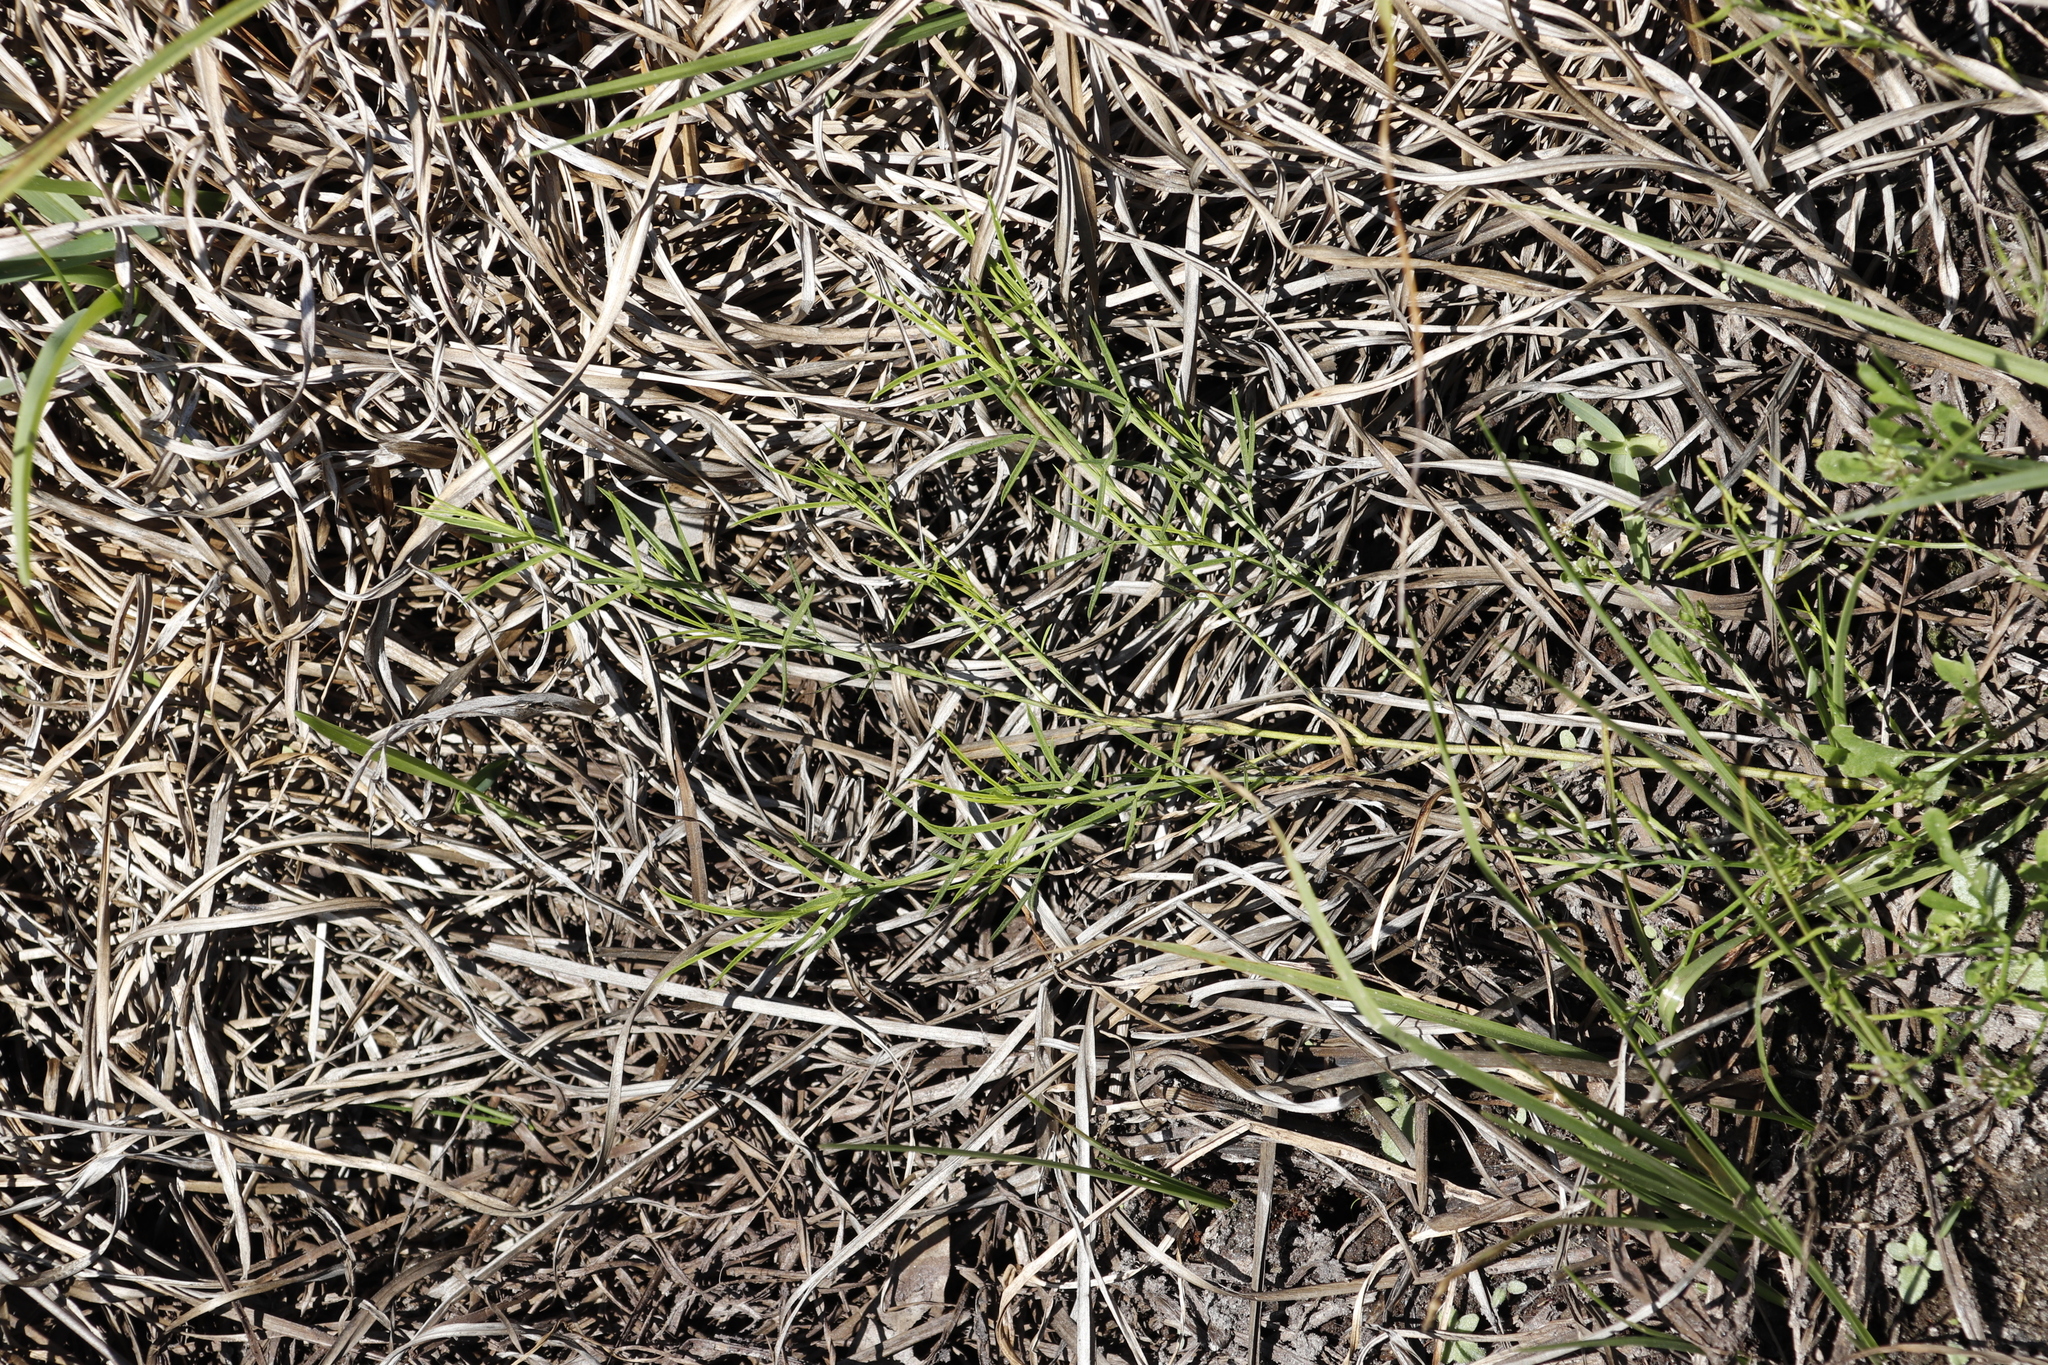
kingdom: Plantae
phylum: Tracheophyta
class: Magnoliopsida
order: Fabales
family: Fabaceae
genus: Psoralea
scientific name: Psoralea fascicularis
